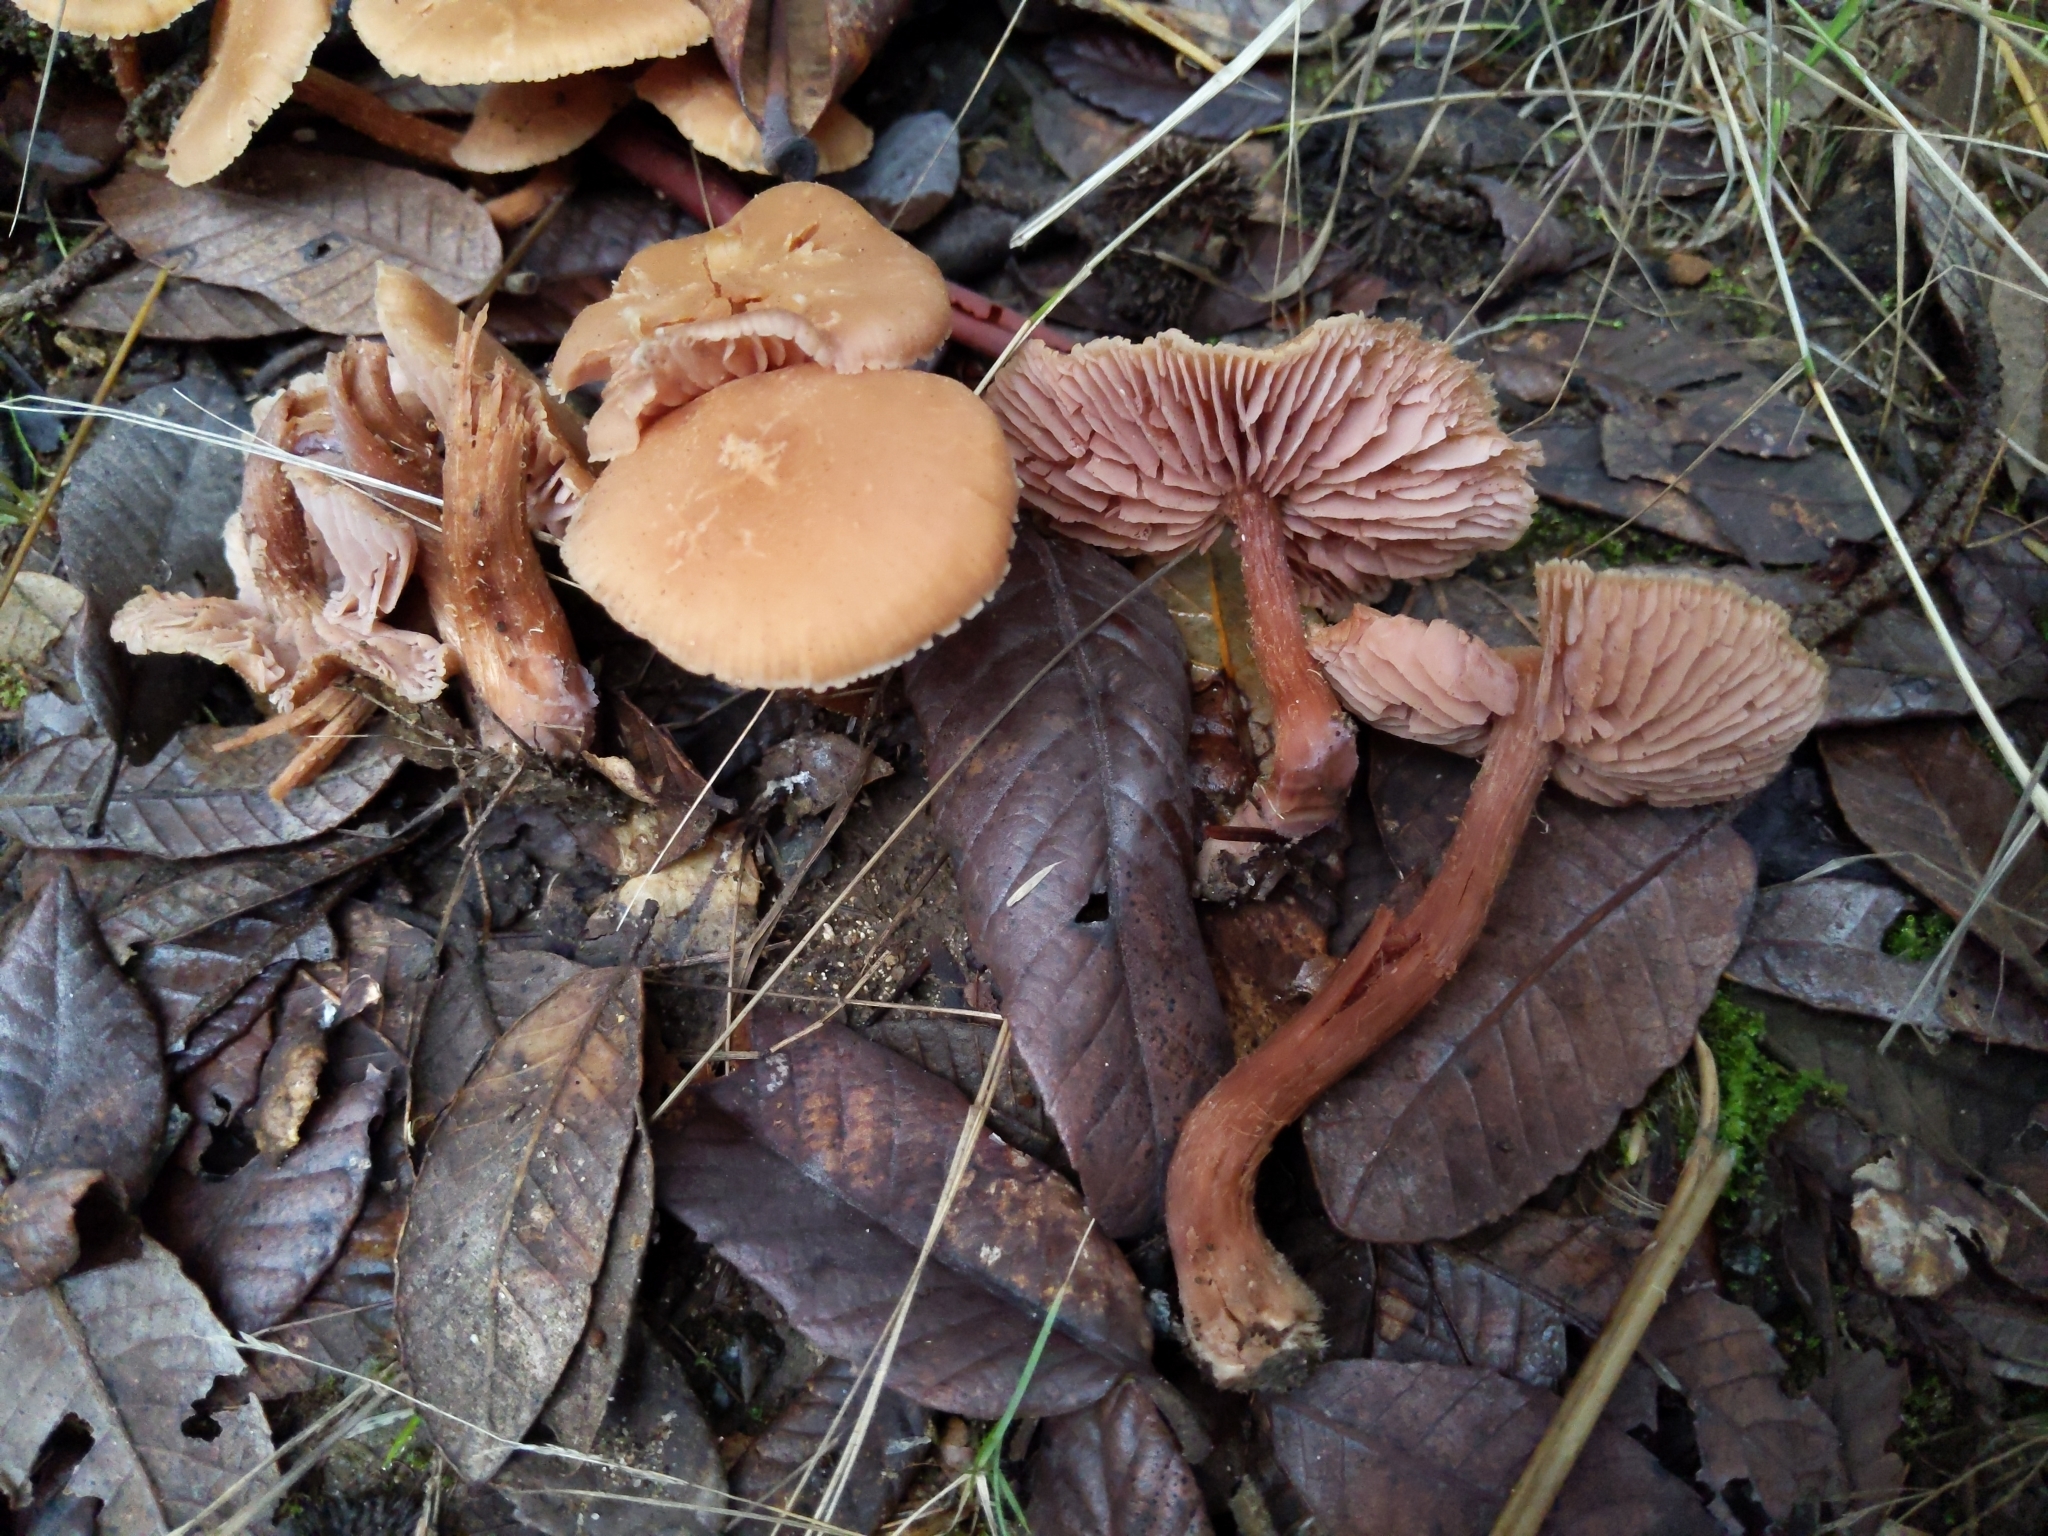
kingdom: Fungi
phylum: Basidiomycota
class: Agaricomycetes
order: Agaricales
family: Hydnangiaceae
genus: Laccaria
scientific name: Laccaria laccata
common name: Deceiver
